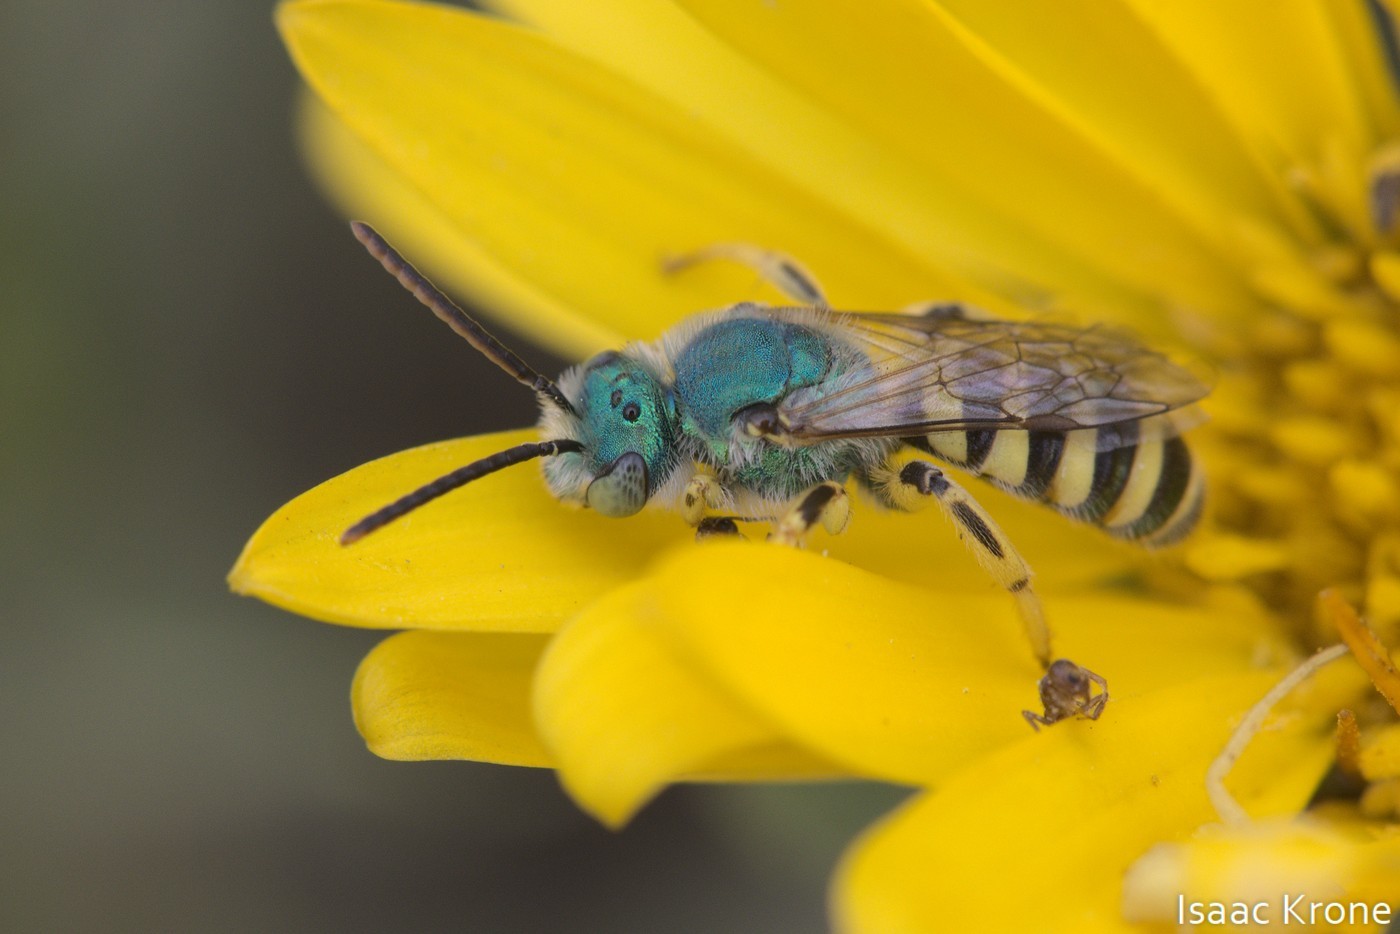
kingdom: Animalia
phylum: Arthropoda
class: Insecta
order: Hymenoptera
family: Halictidae
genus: Agapostemon
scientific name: Agapostemon texanus
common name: Texas striped sweat bee
